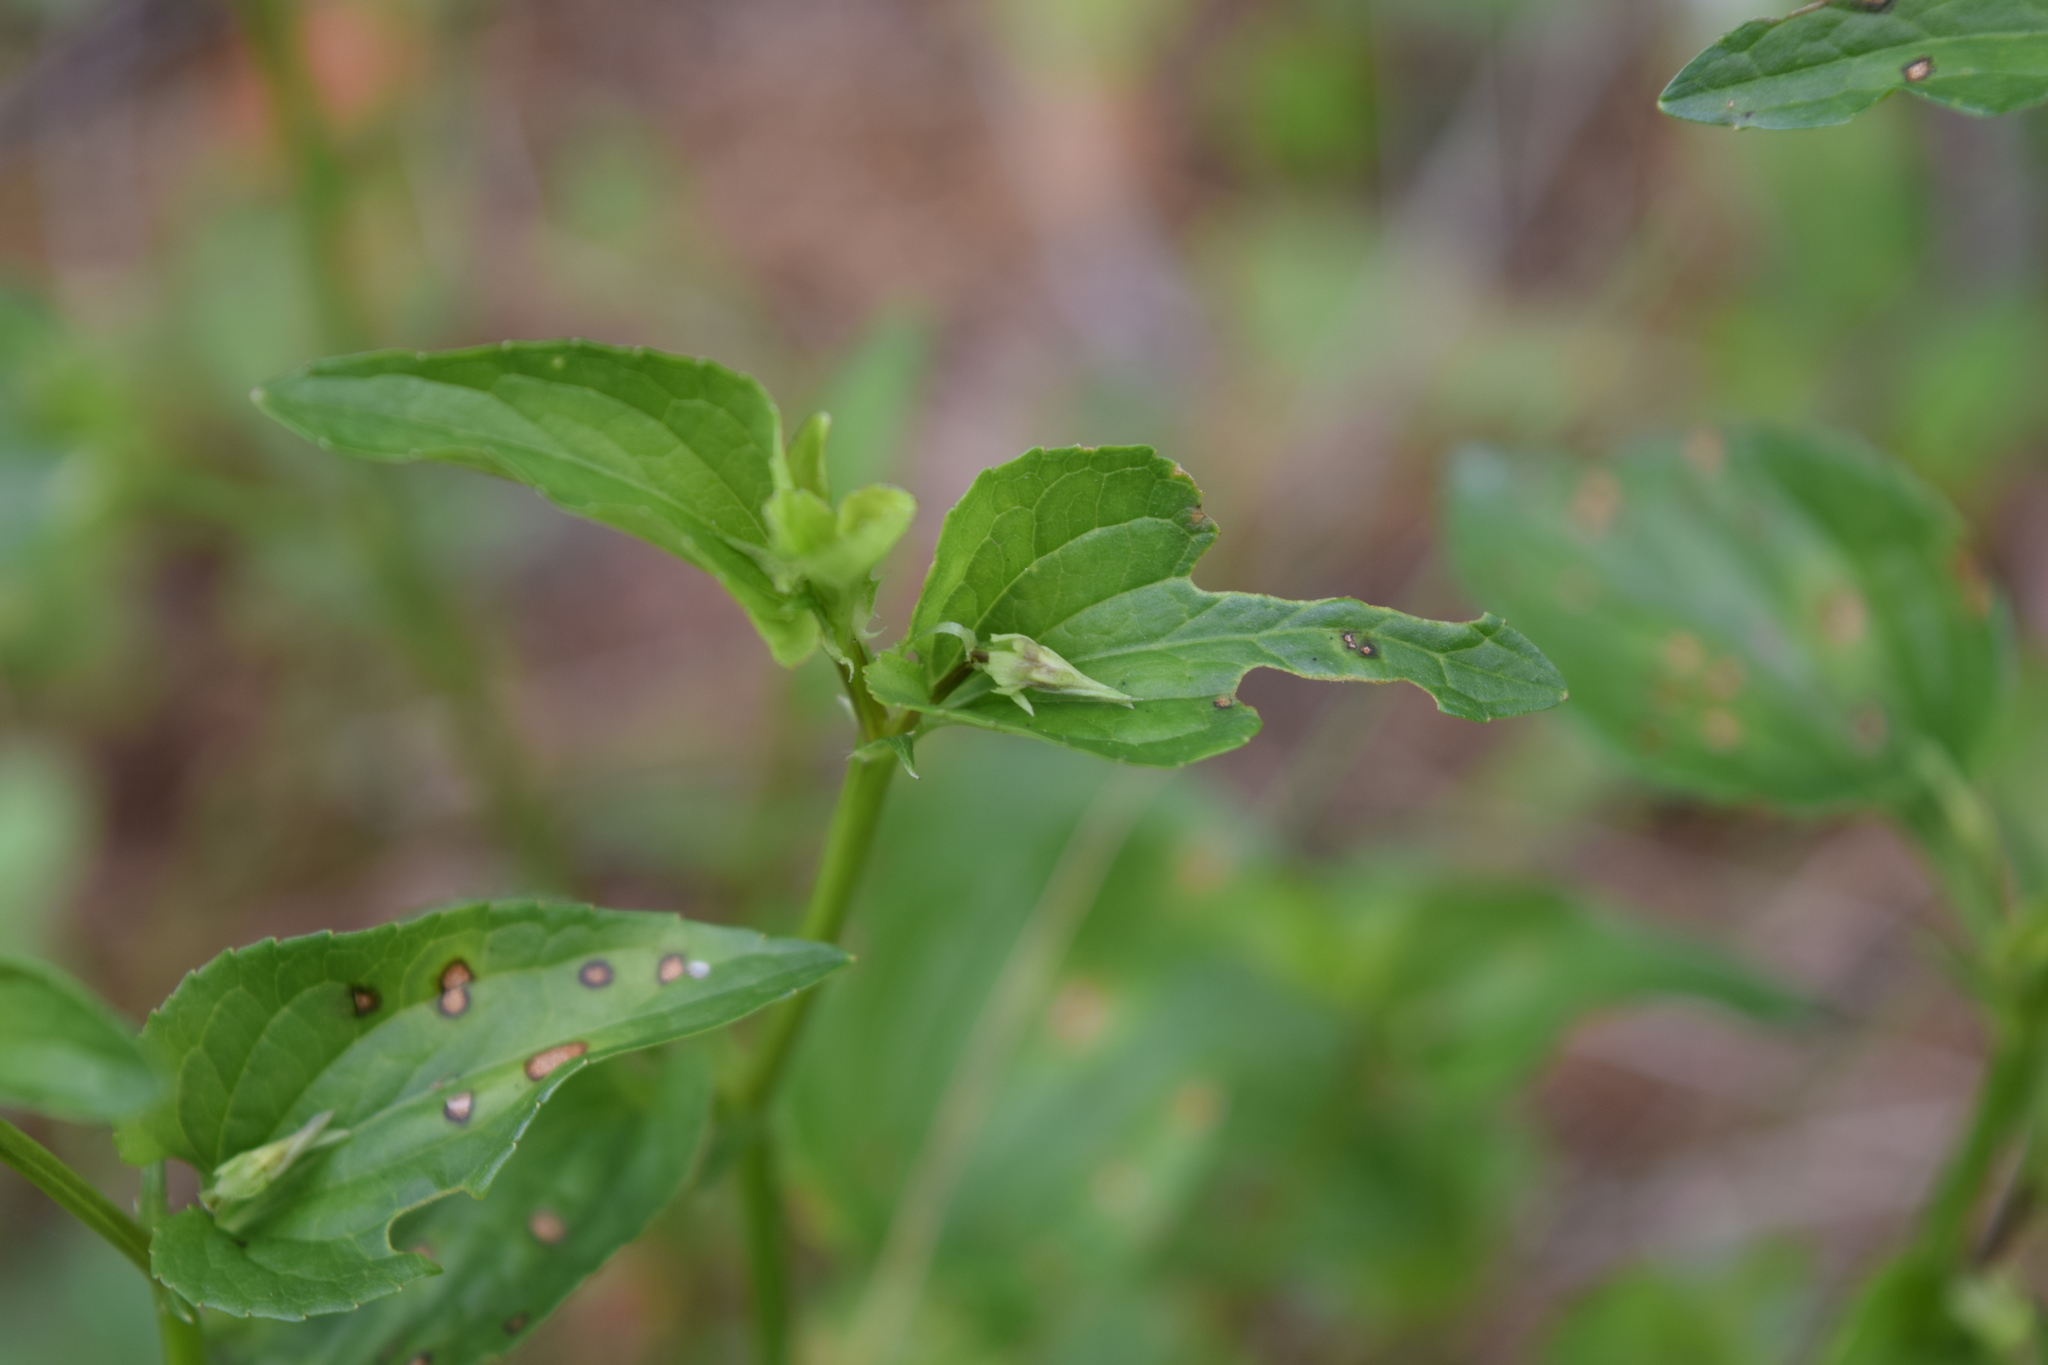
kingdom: Plantae
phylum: Tracheophyta
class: Magnoliopsida
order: Malpighiales
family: Violaceae
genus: Viola
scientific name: Viola canina
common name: Heath dog-violet
